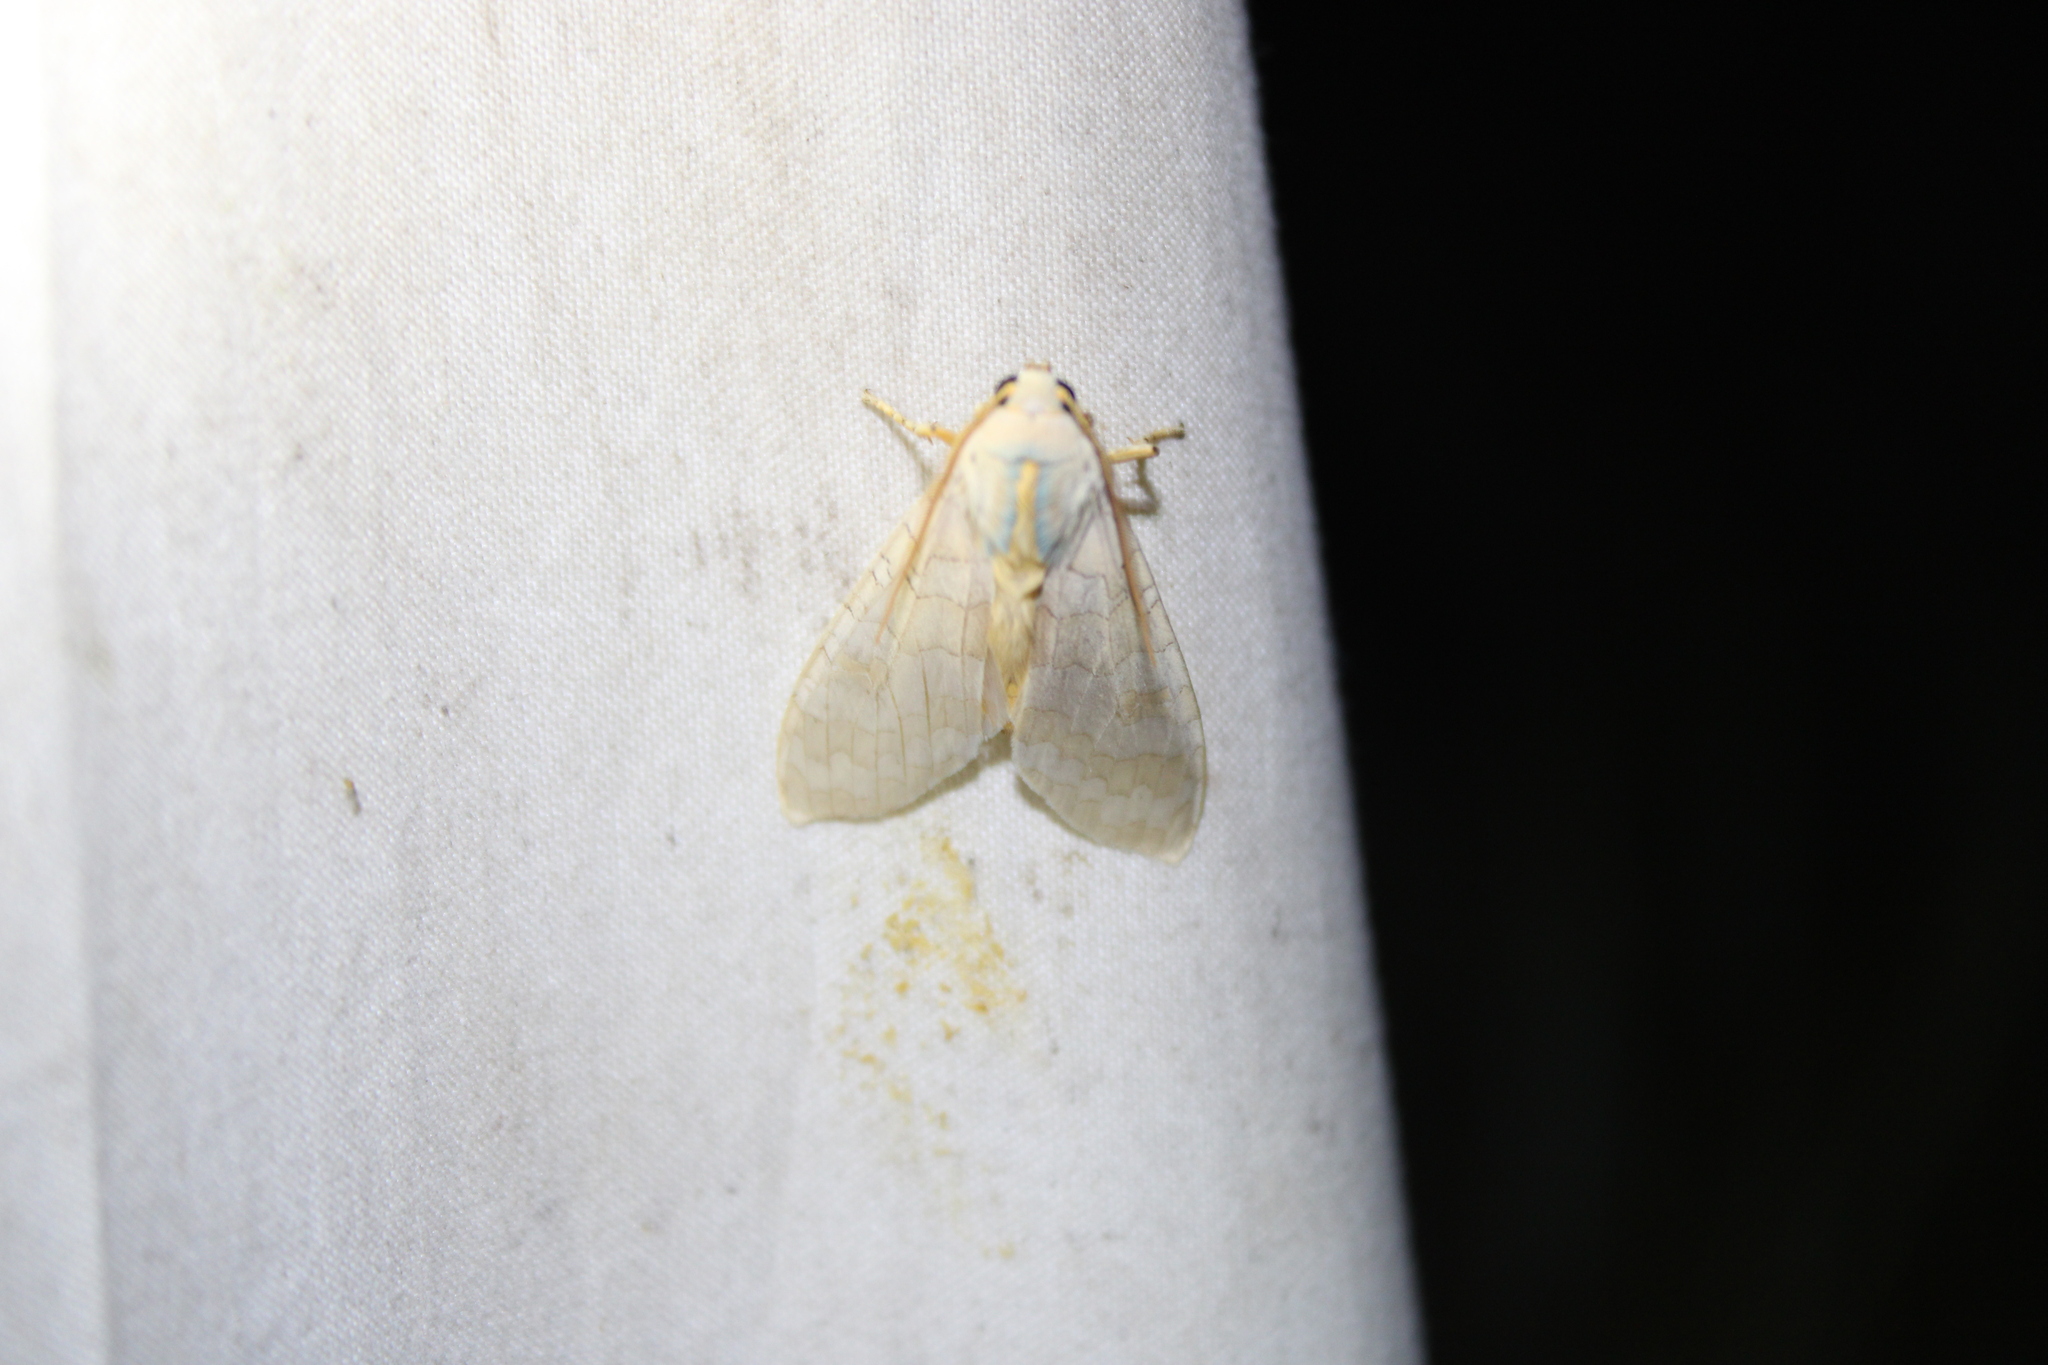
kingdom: Animalia
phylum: Arthropoda
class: Insecta
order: Lepidoptera
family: Erebidae
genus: Halysidota
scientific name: Halysidota
